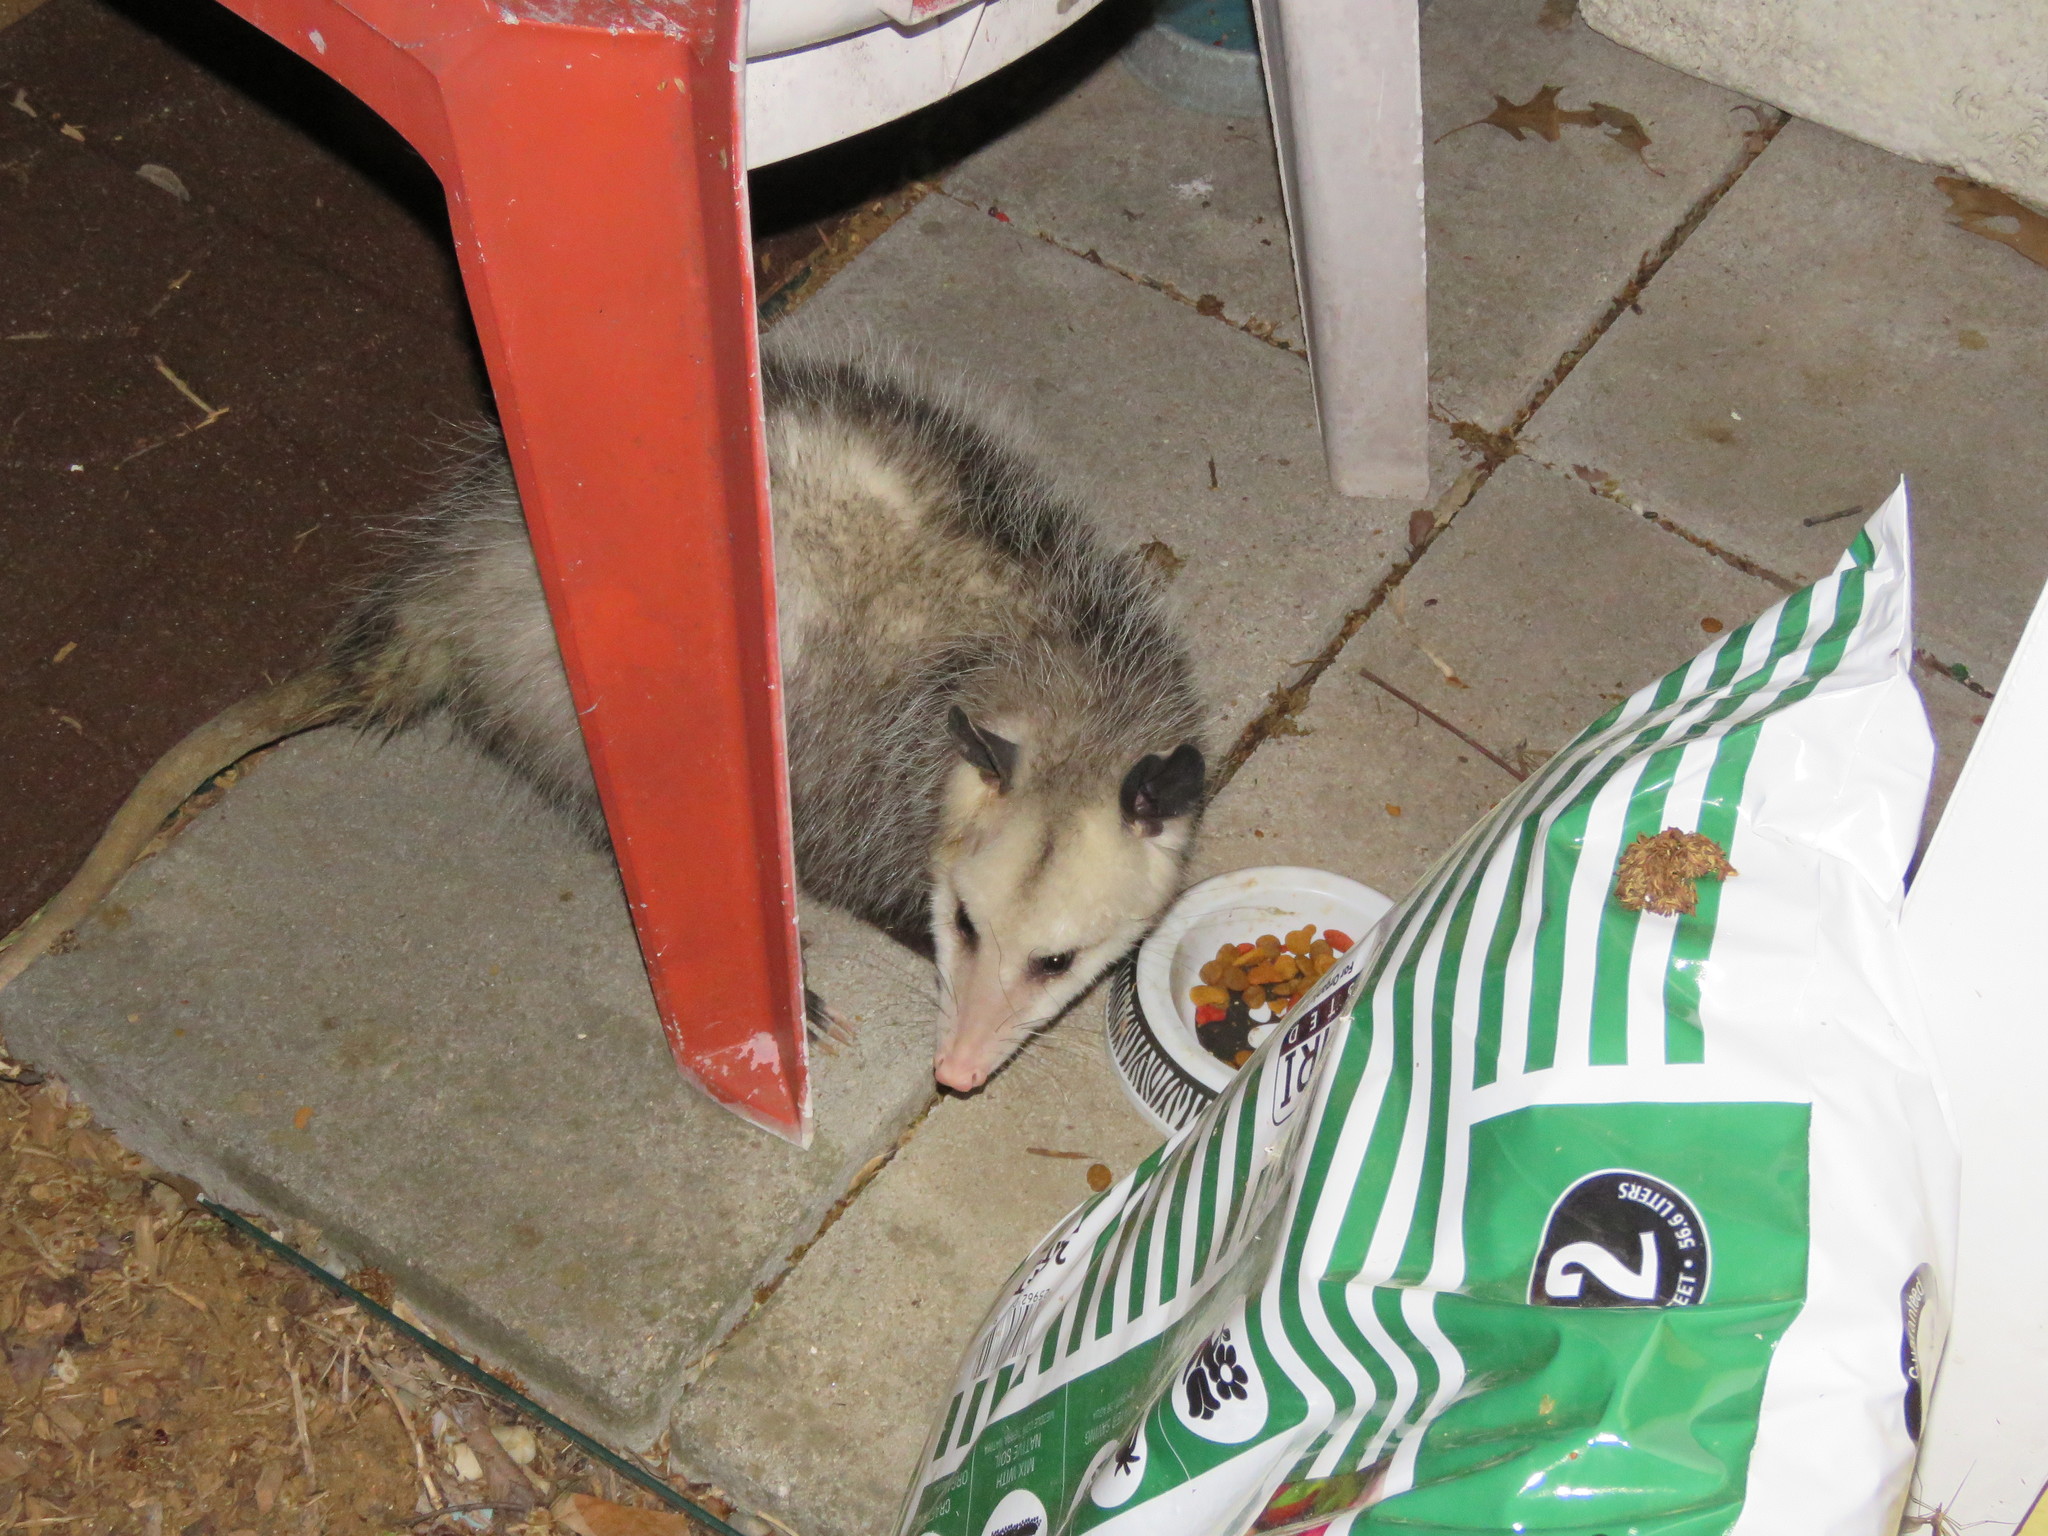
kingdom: Animalia
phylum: Chordata
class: Mammalia
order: Didelphimorphia
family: Didelphidae
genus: Didelphis
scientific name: Didelphis virginiana
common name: Virginia opossum
